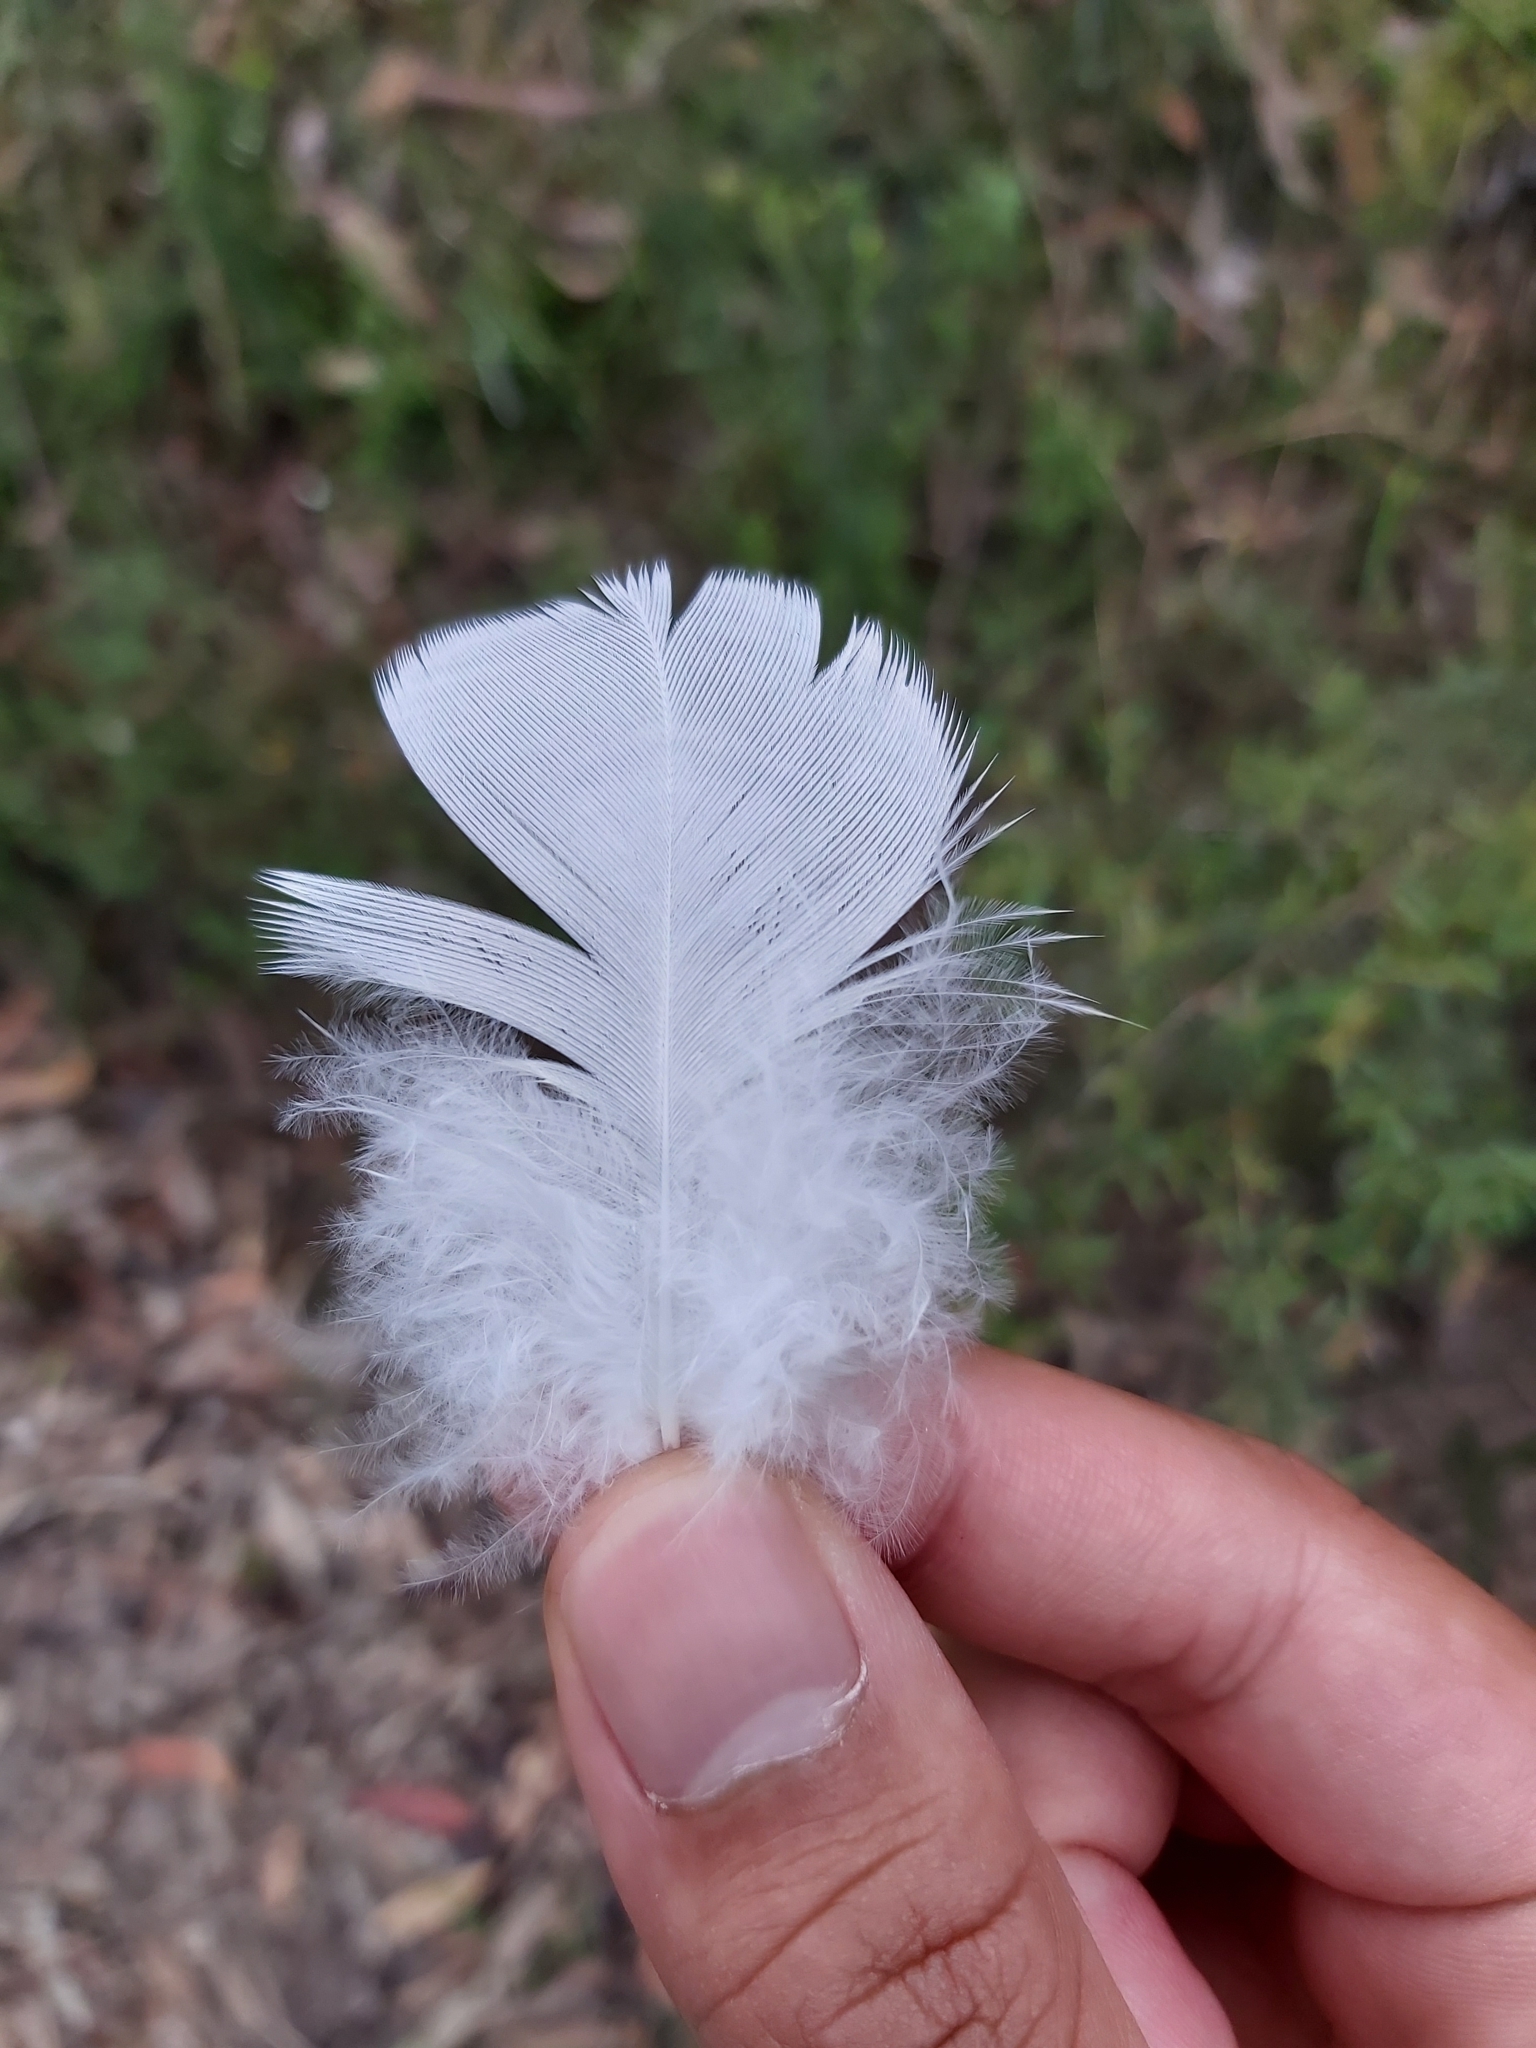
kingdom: Animalia
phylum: Chordata
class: Aves
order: Psittaciformes
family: Psittacidae
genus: Cacatua
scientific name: Cacatua galerita
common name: Sulphur-crested cockatoo
